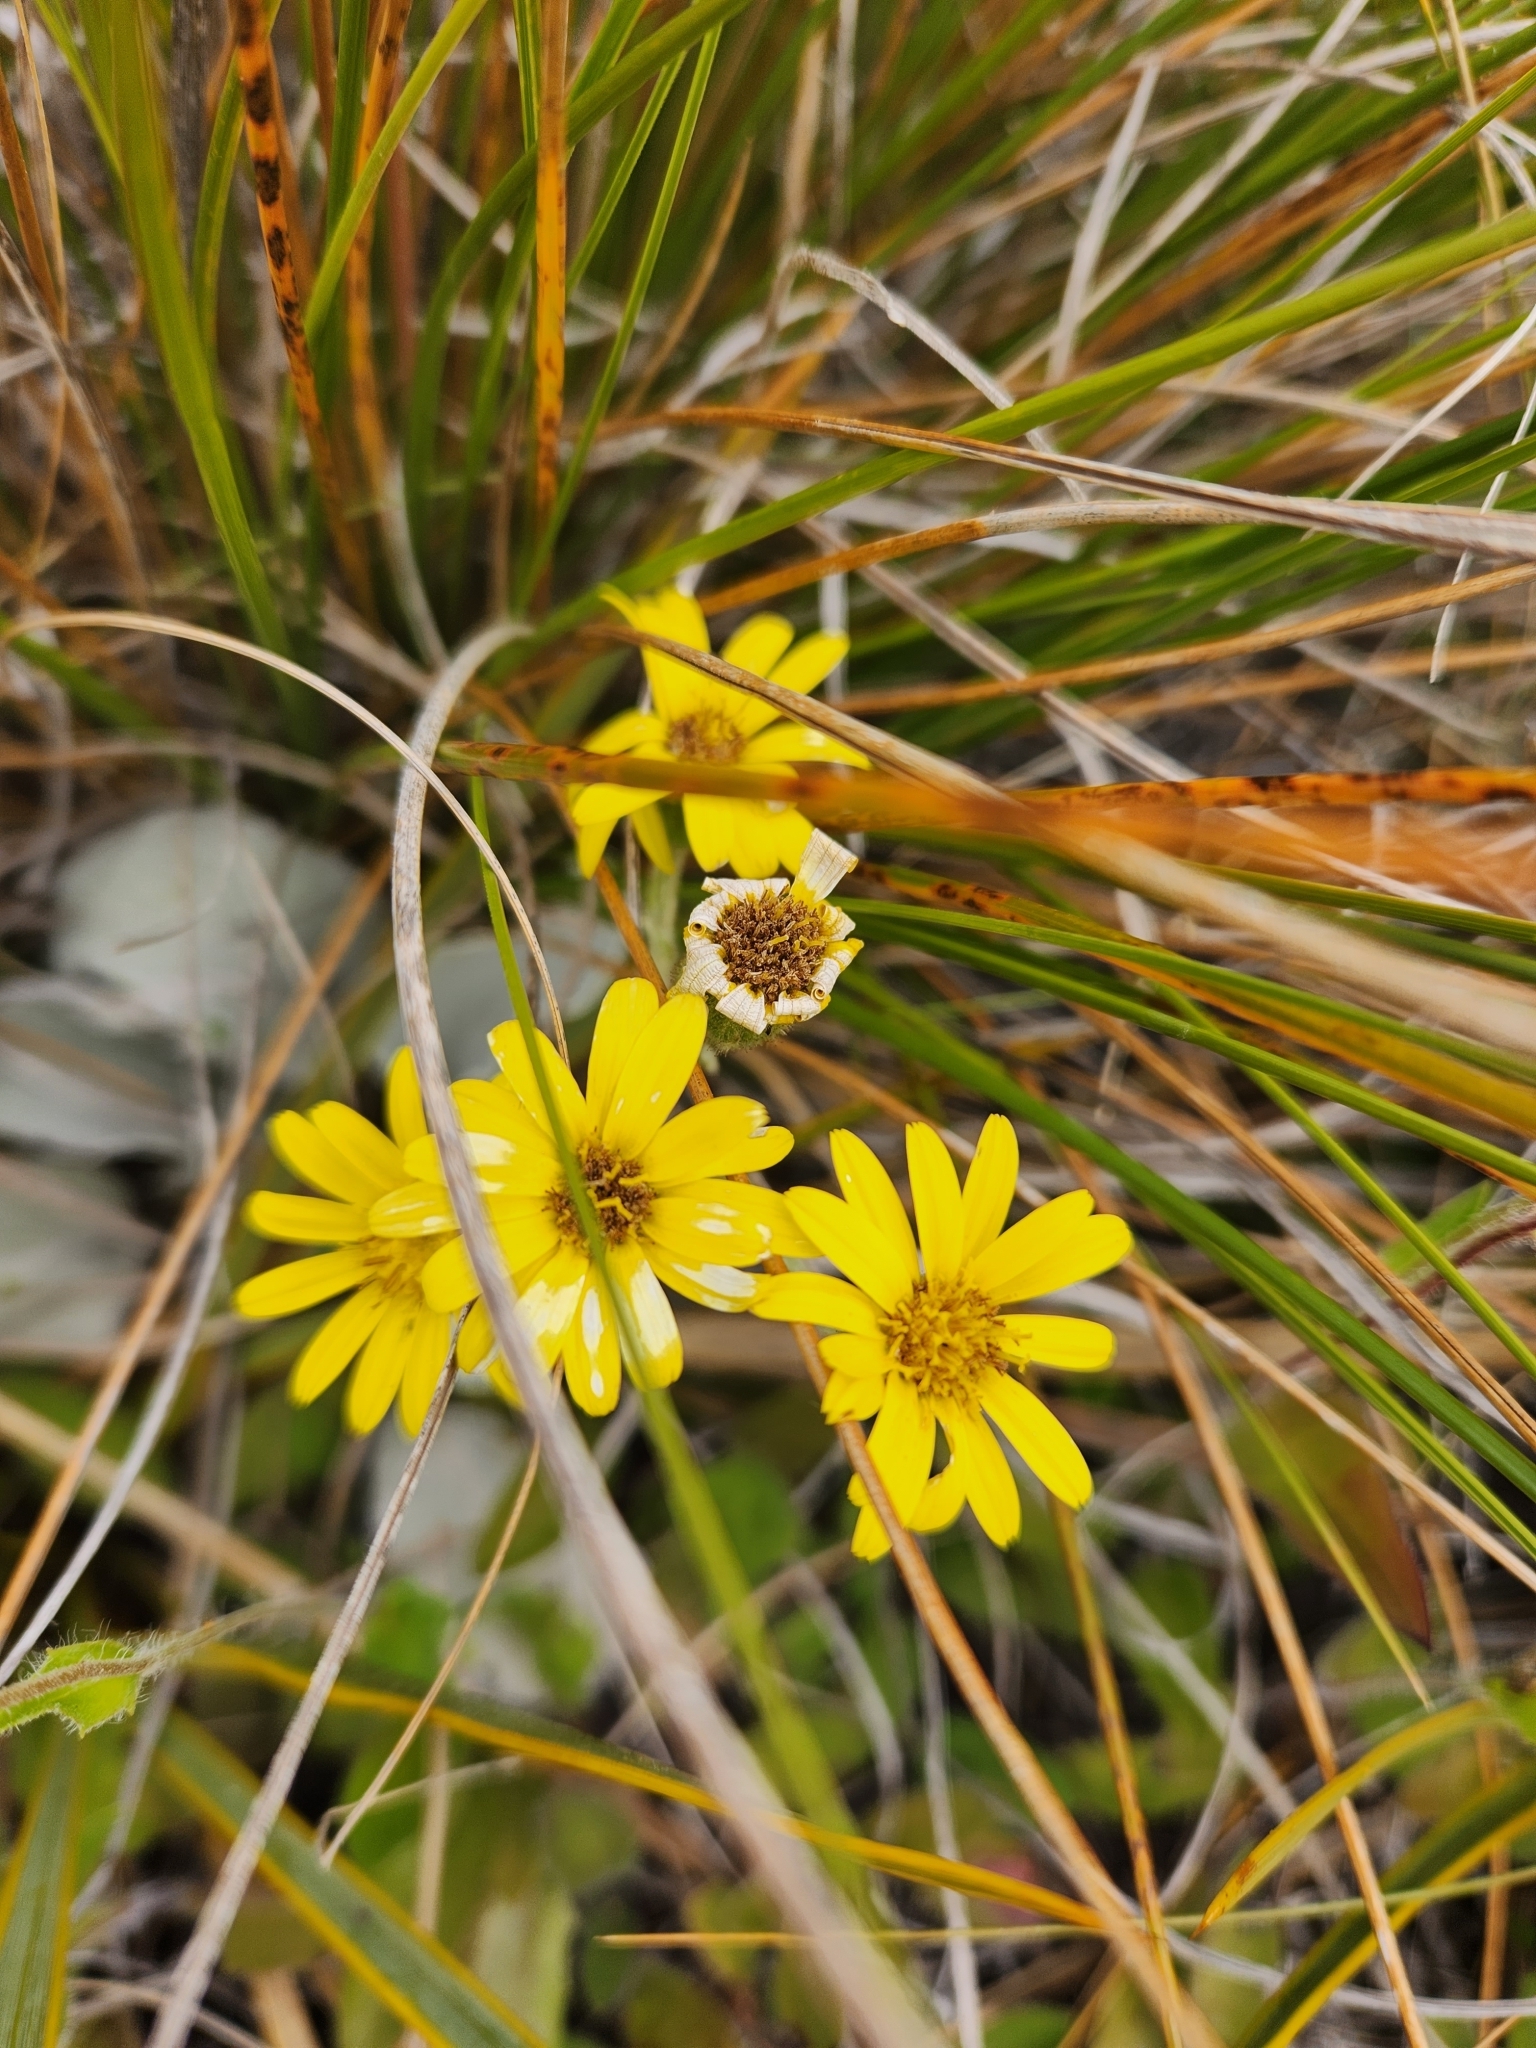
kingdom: Plantae
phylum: Tracheophyta
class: Magnoliopsida
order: Asterales
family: Asteraceae
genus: Brachyglottis
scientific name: Brachyglottis haastii
